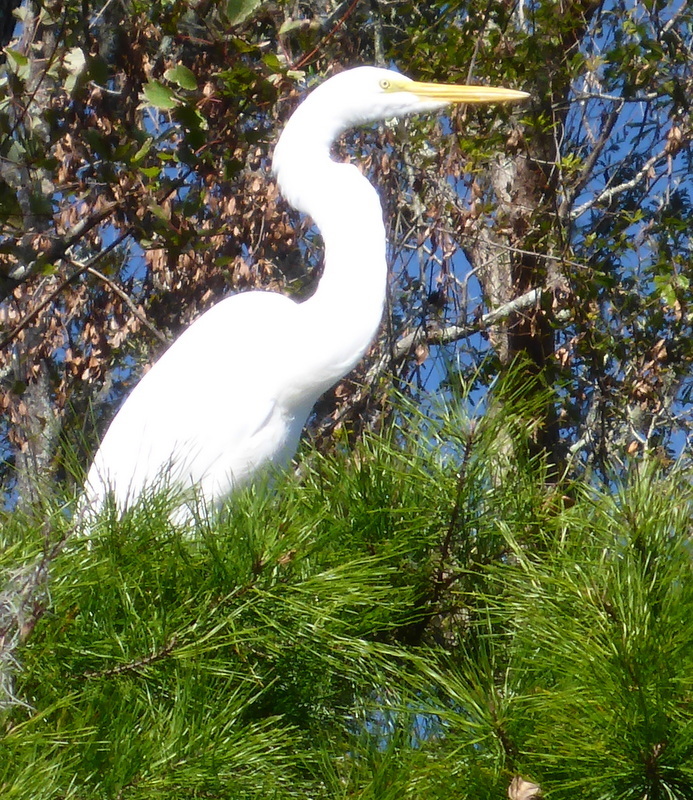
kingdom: Animalia
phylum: Chordata
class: Aves
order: Pelecaniformes
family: Ardeidae
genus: Ardea
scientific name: Ardea alba
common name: Great egret
